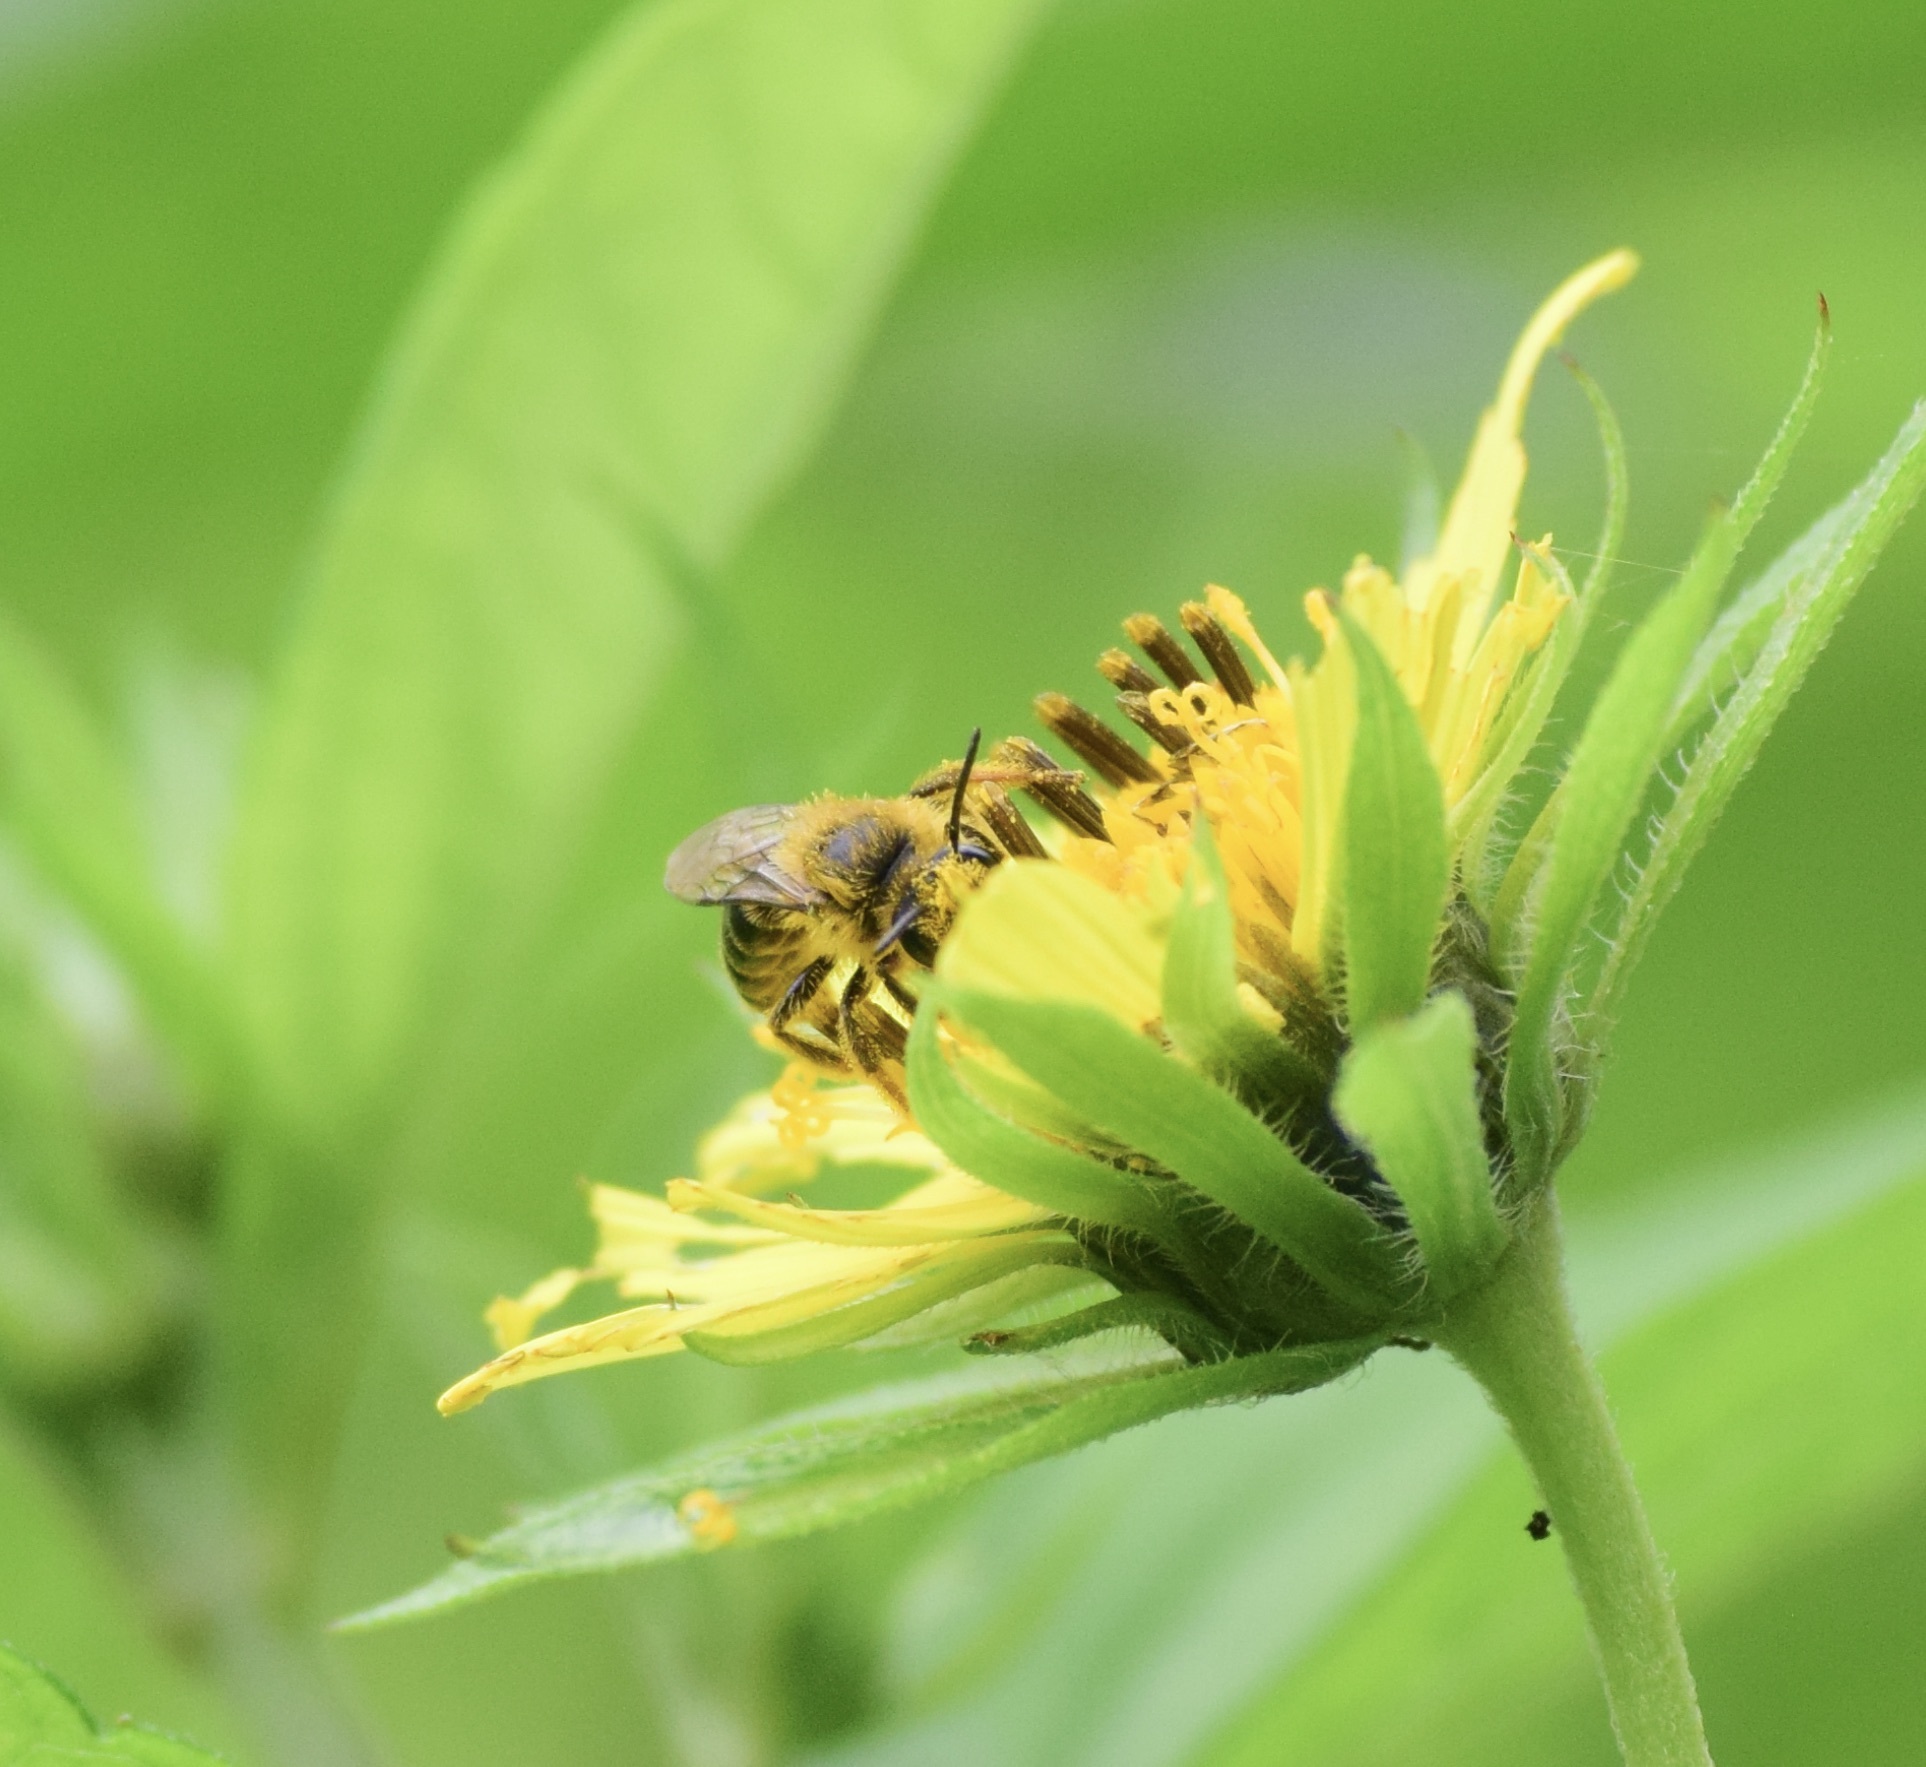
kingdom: Animalia
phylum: Arthropoda
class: Insecta
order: Hymenoptera
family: Andrenidae
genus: Andrena
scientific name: Andrena helianthi
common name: Sunflower mining bee
